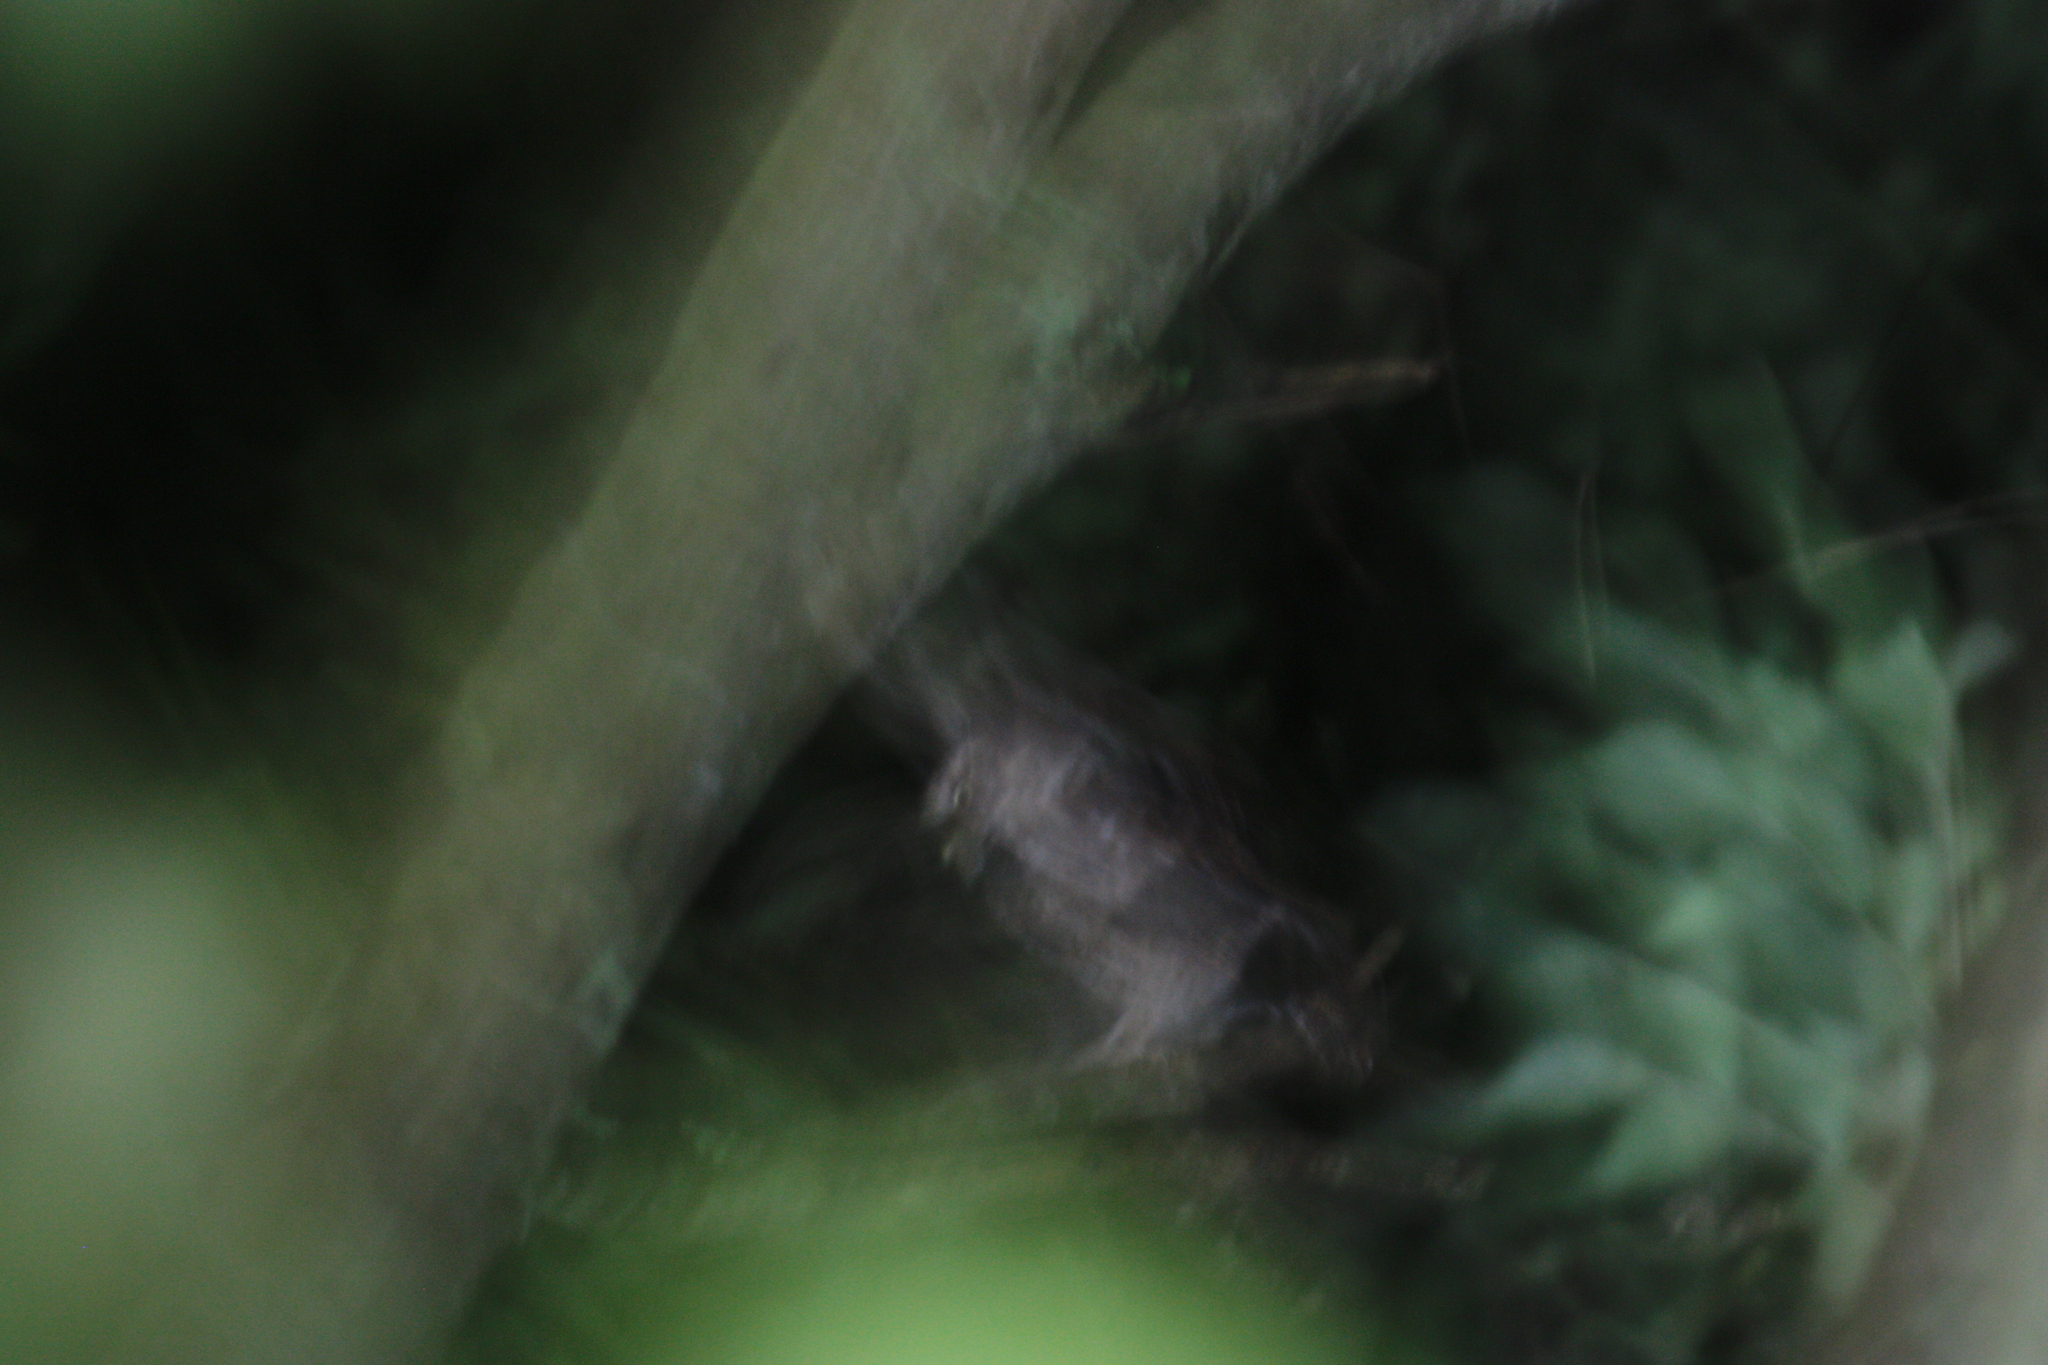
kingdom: Animalia
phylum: Chordata
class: Aves
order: Strigiformes
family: Strigidae
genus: Otus
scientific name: Otus spilocephalus
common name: Mountain scops owl
